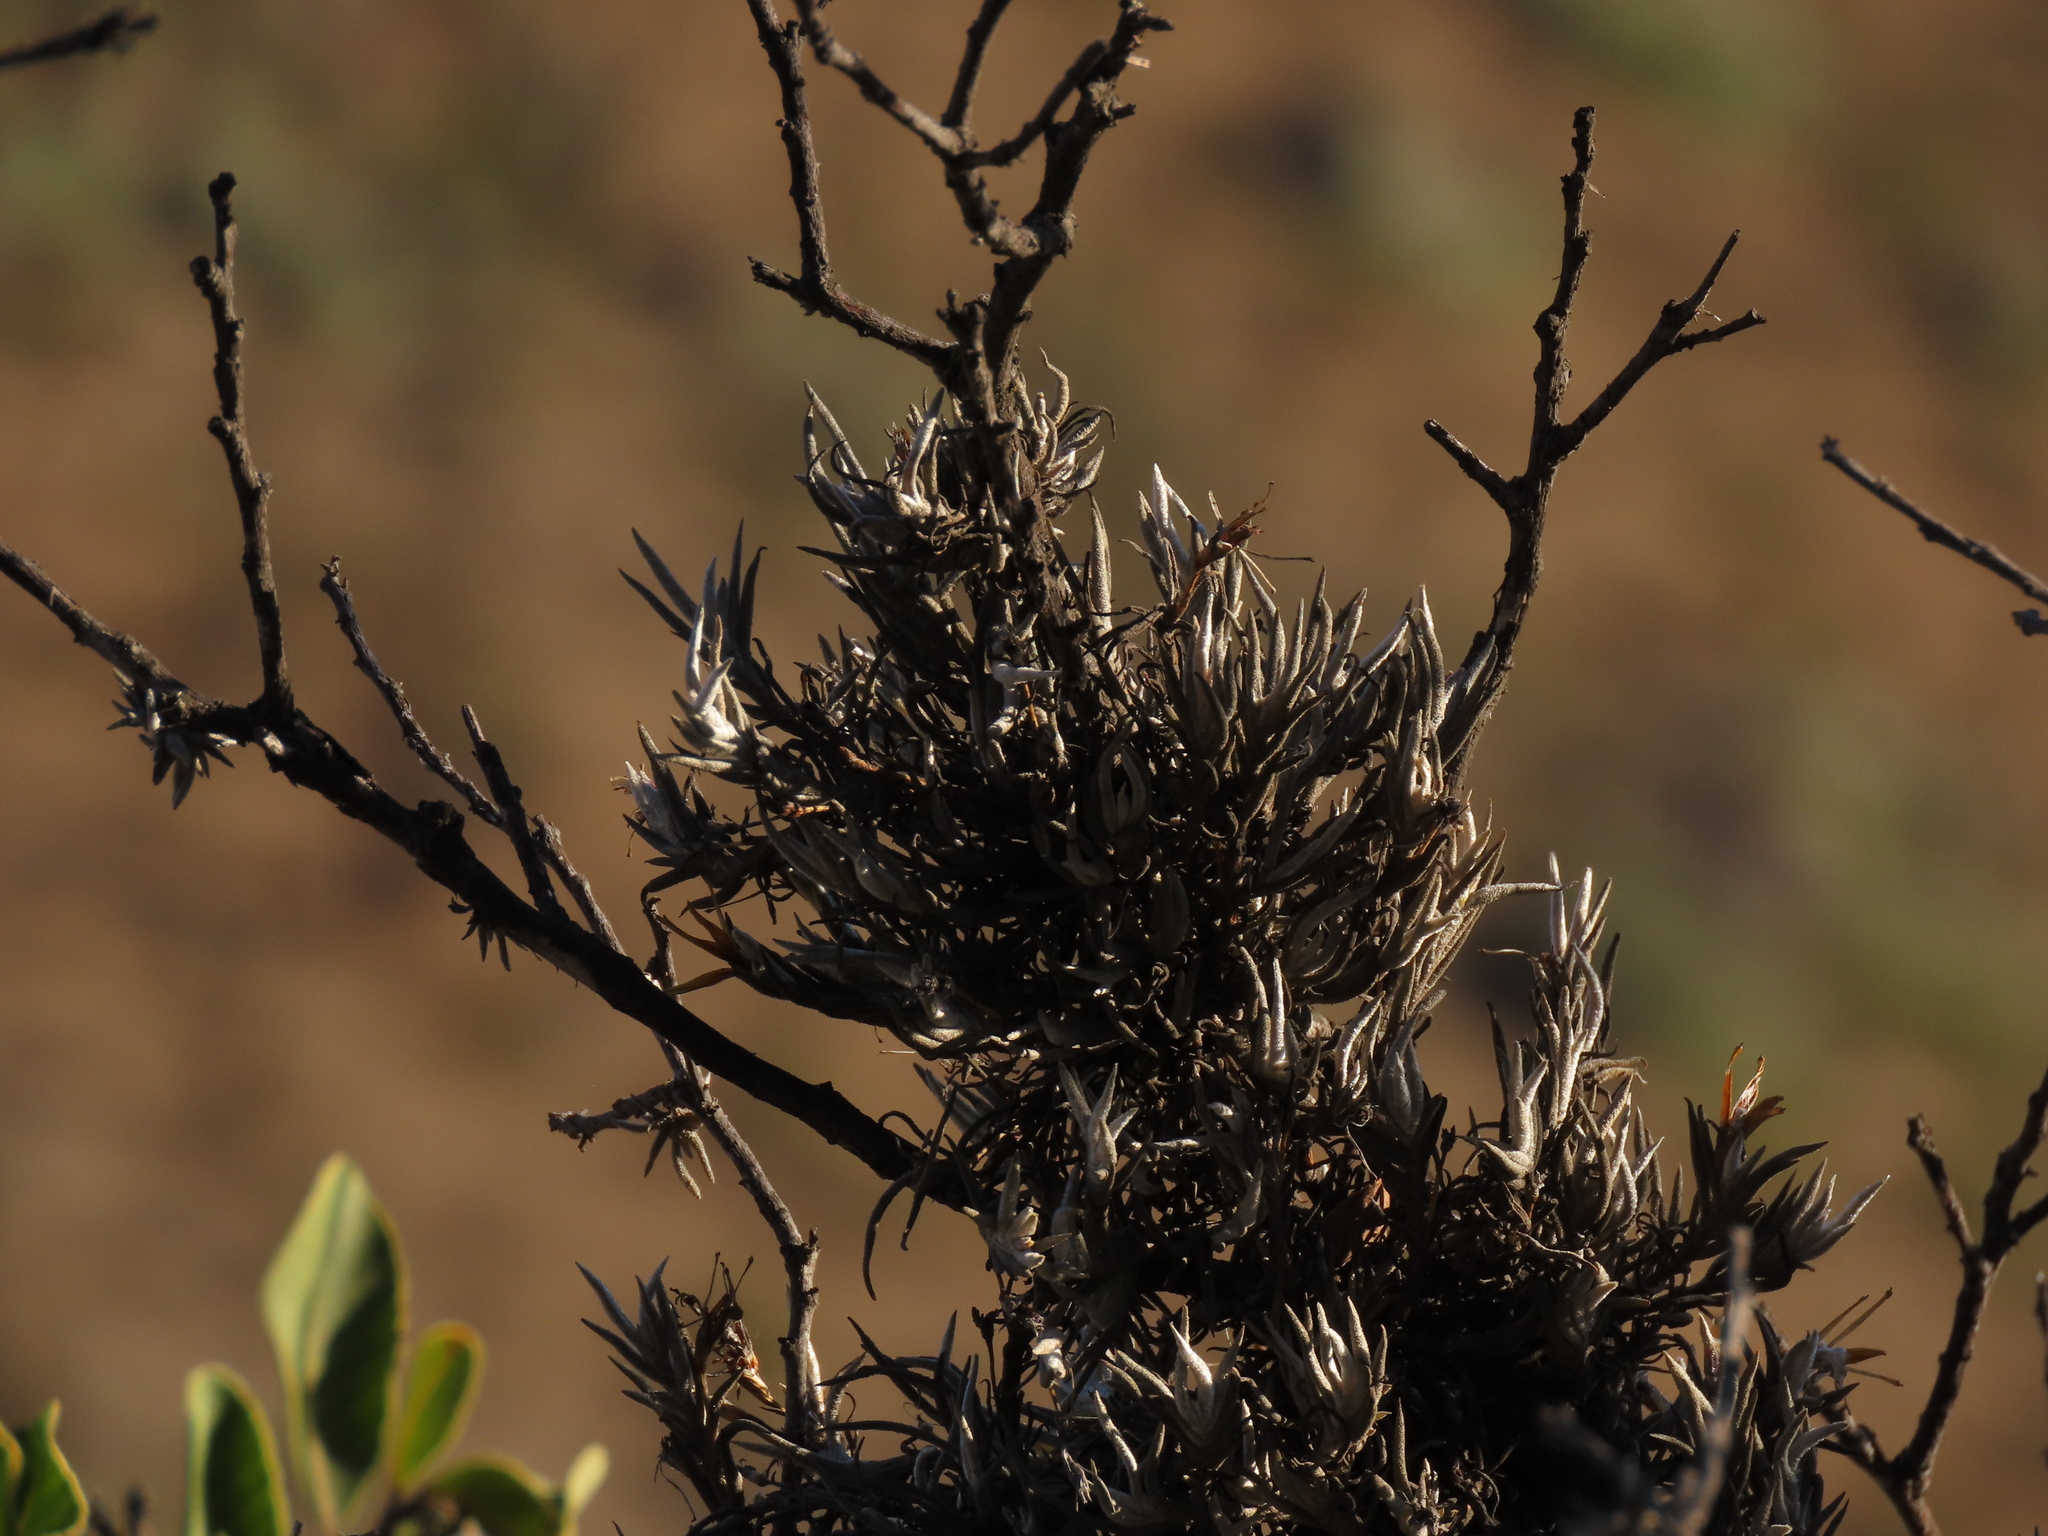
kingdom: Plantae
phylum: Tracheophyta
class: Liliopsida
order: Poales
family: Bromeliaceae
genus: Tillandsia
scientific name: Tillandsia virescens
